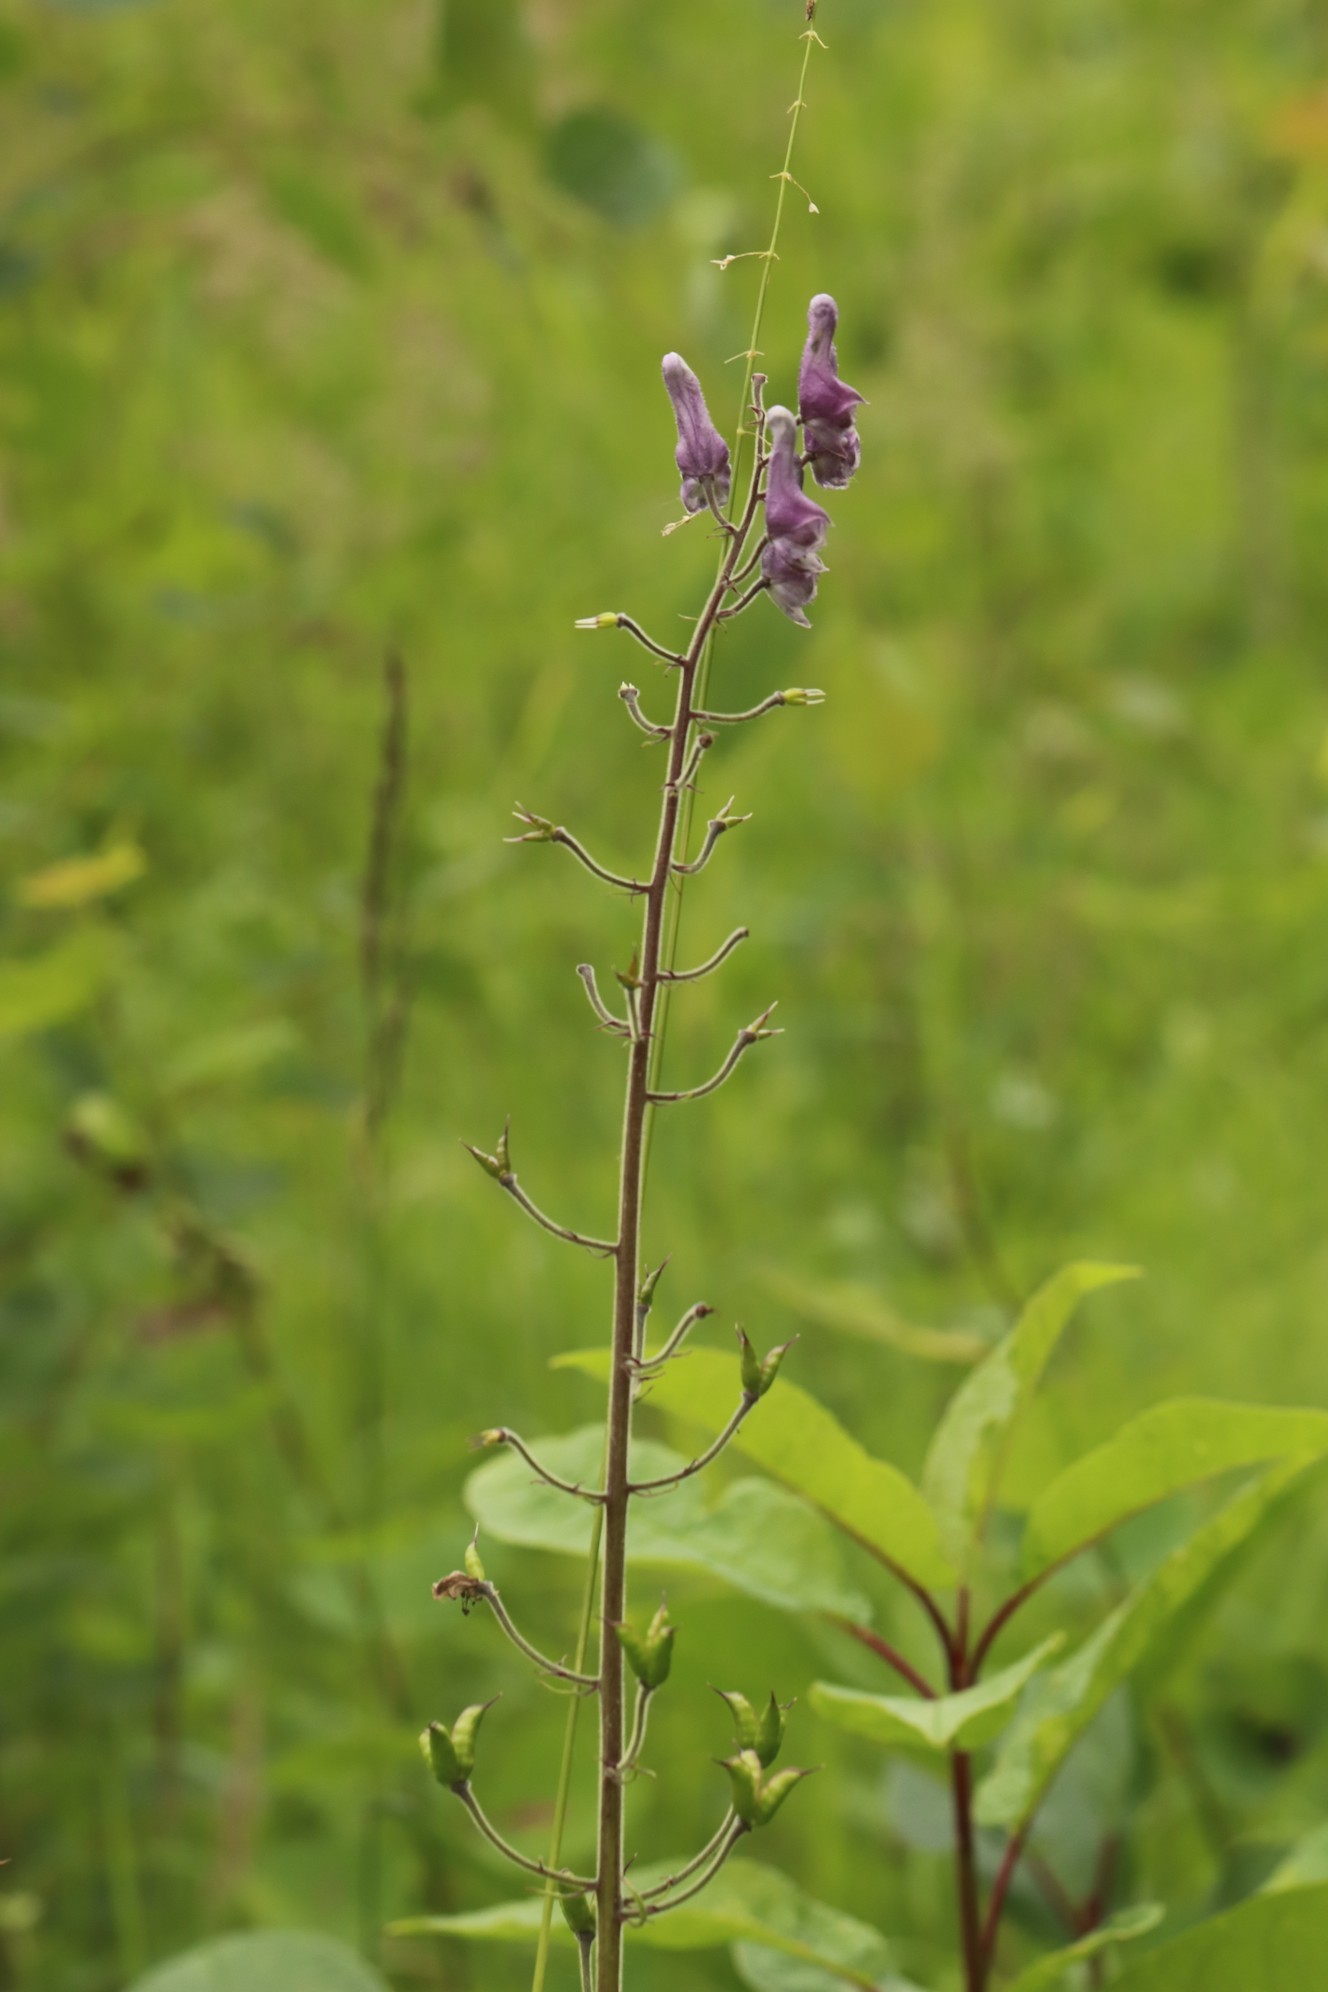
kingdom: Plantae
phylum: Tracheophyta
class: Magnoliopsida
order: Ranunculales
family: Ranunculaceae
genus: Aconitum
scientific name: Aconitum septentrionale
